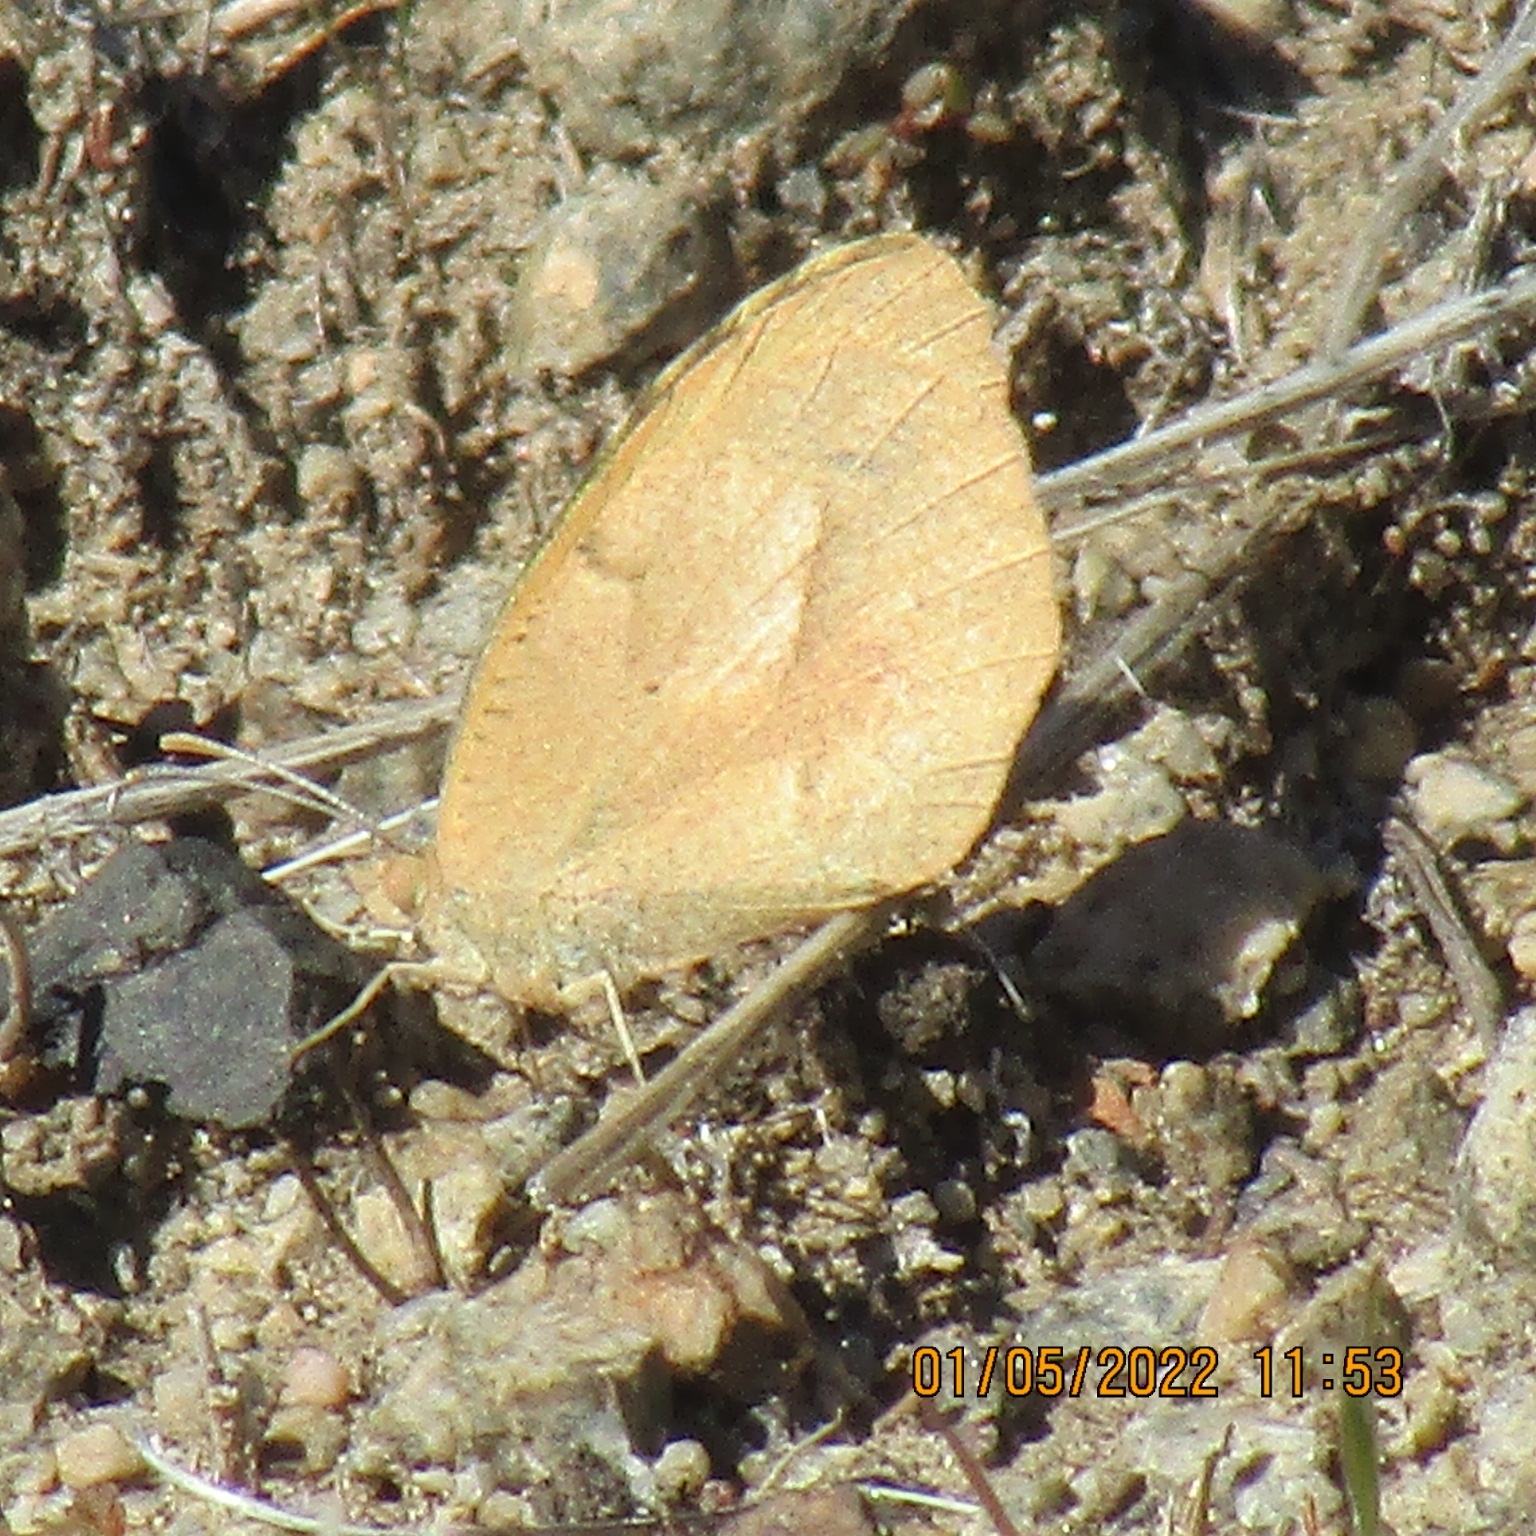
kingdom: Animalia
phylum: Arthropoda
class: Insecta
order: Lepidoptera
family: Pieridae
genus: Abaeis
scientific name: Abaeis nicippe
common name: Sleepy orange
